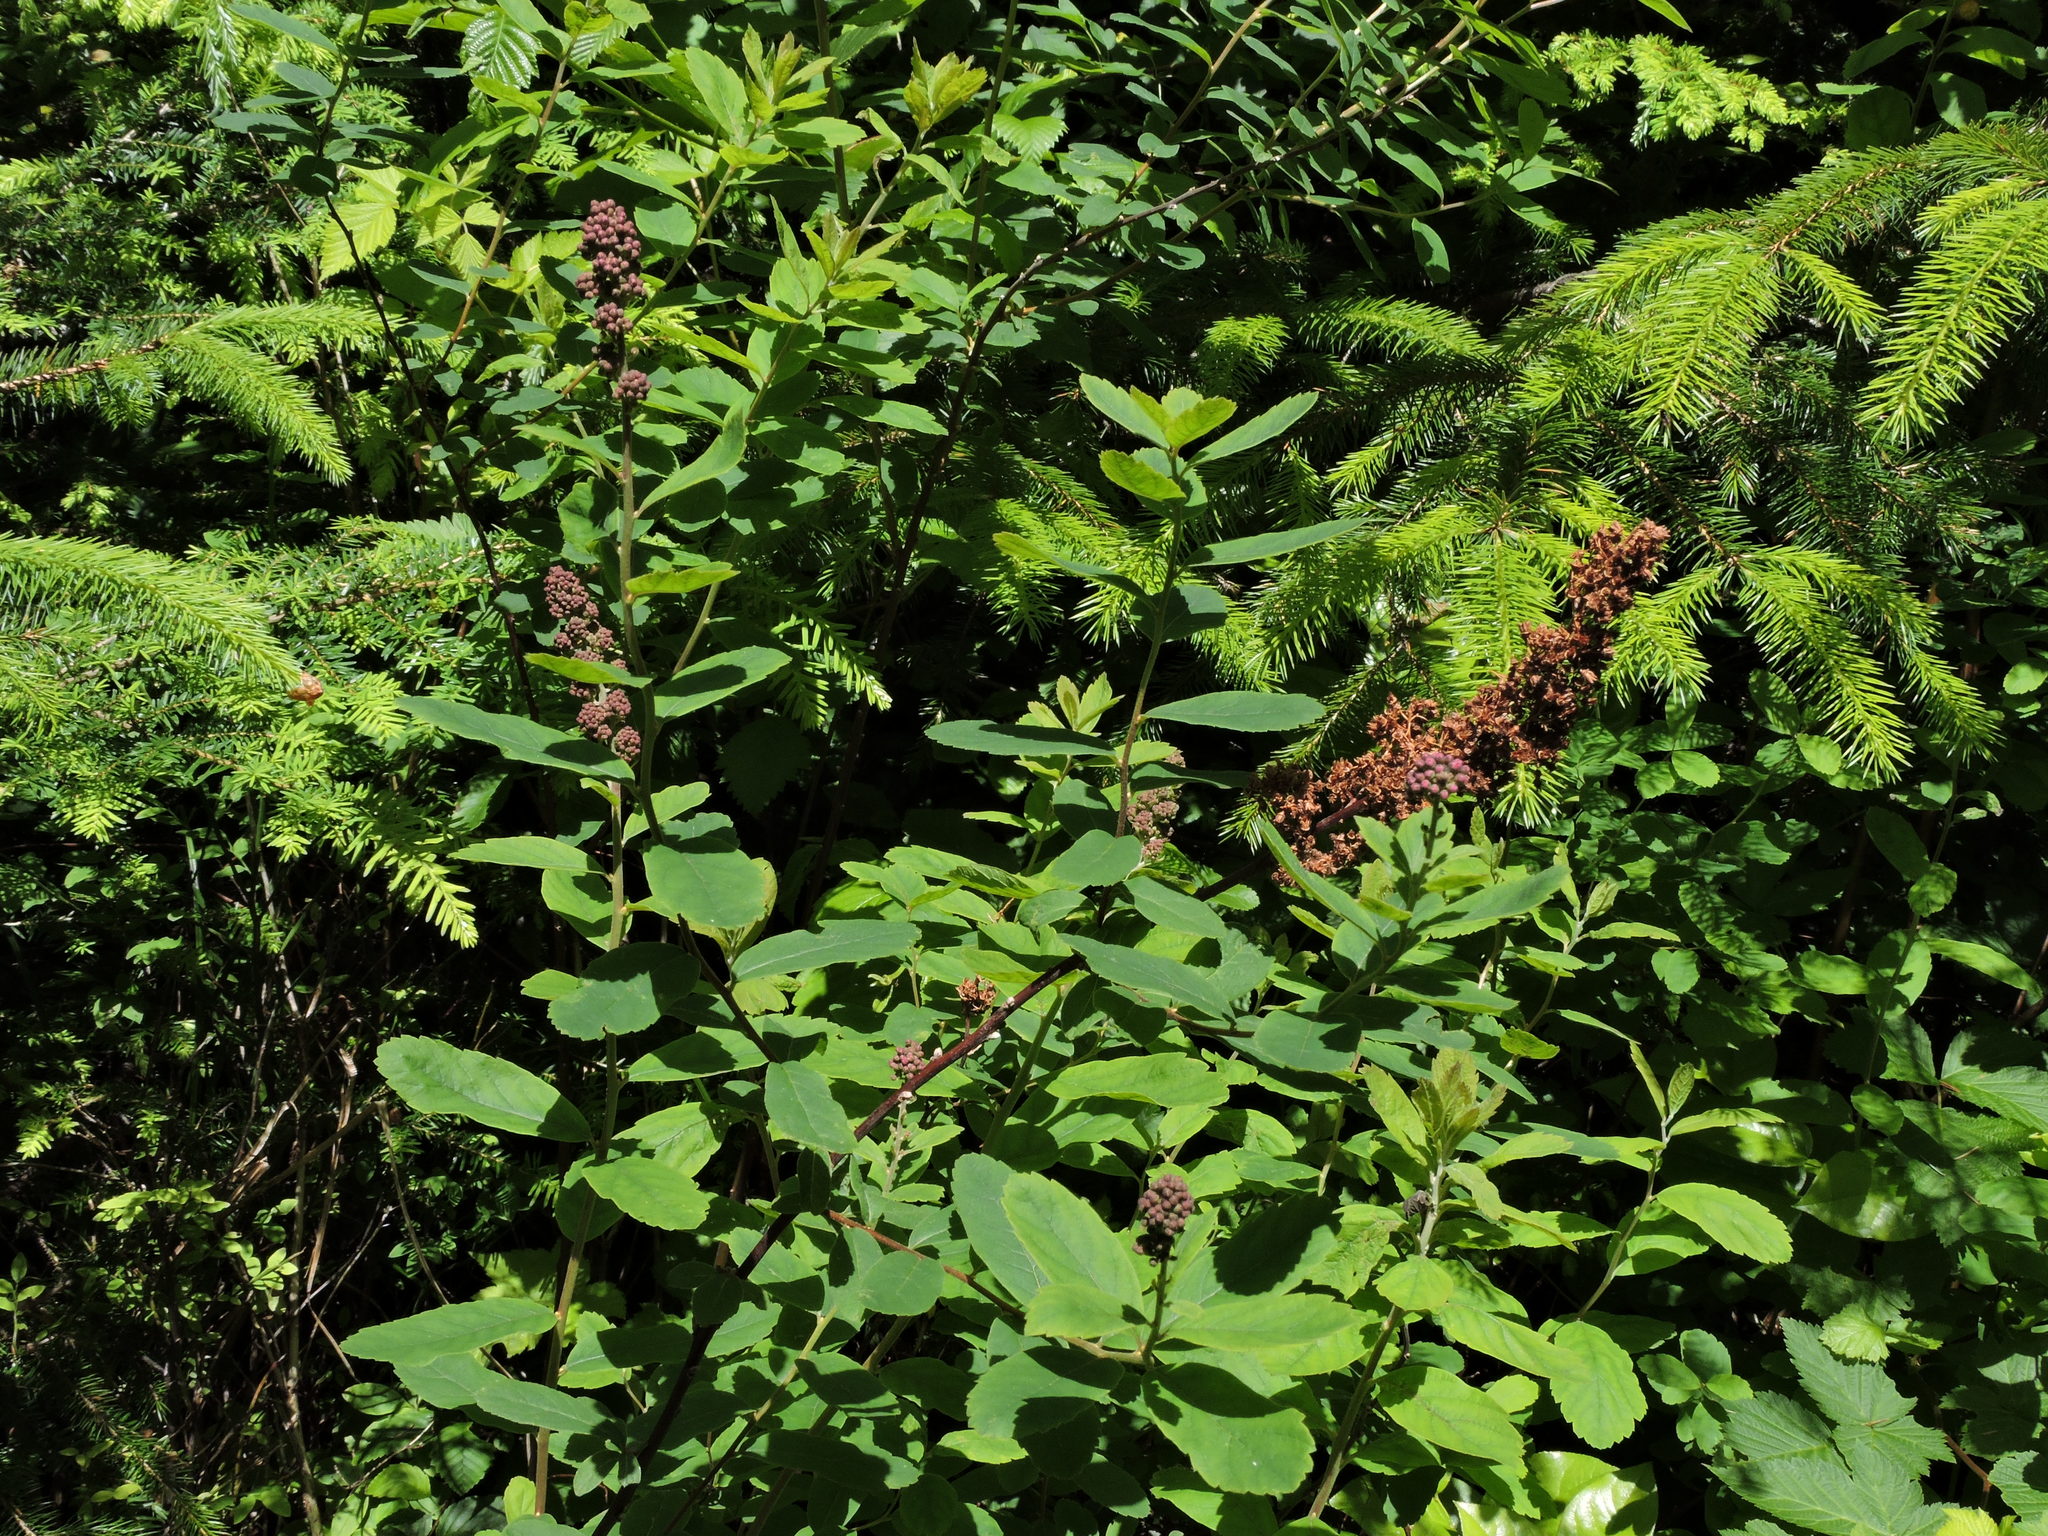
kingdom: Plantae
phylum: Tracheophyta
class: Magnoliopsida
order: Rosales
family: Rosaceae
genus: Spiraea
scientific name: Spiraea douglasii
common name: Steeplebush
